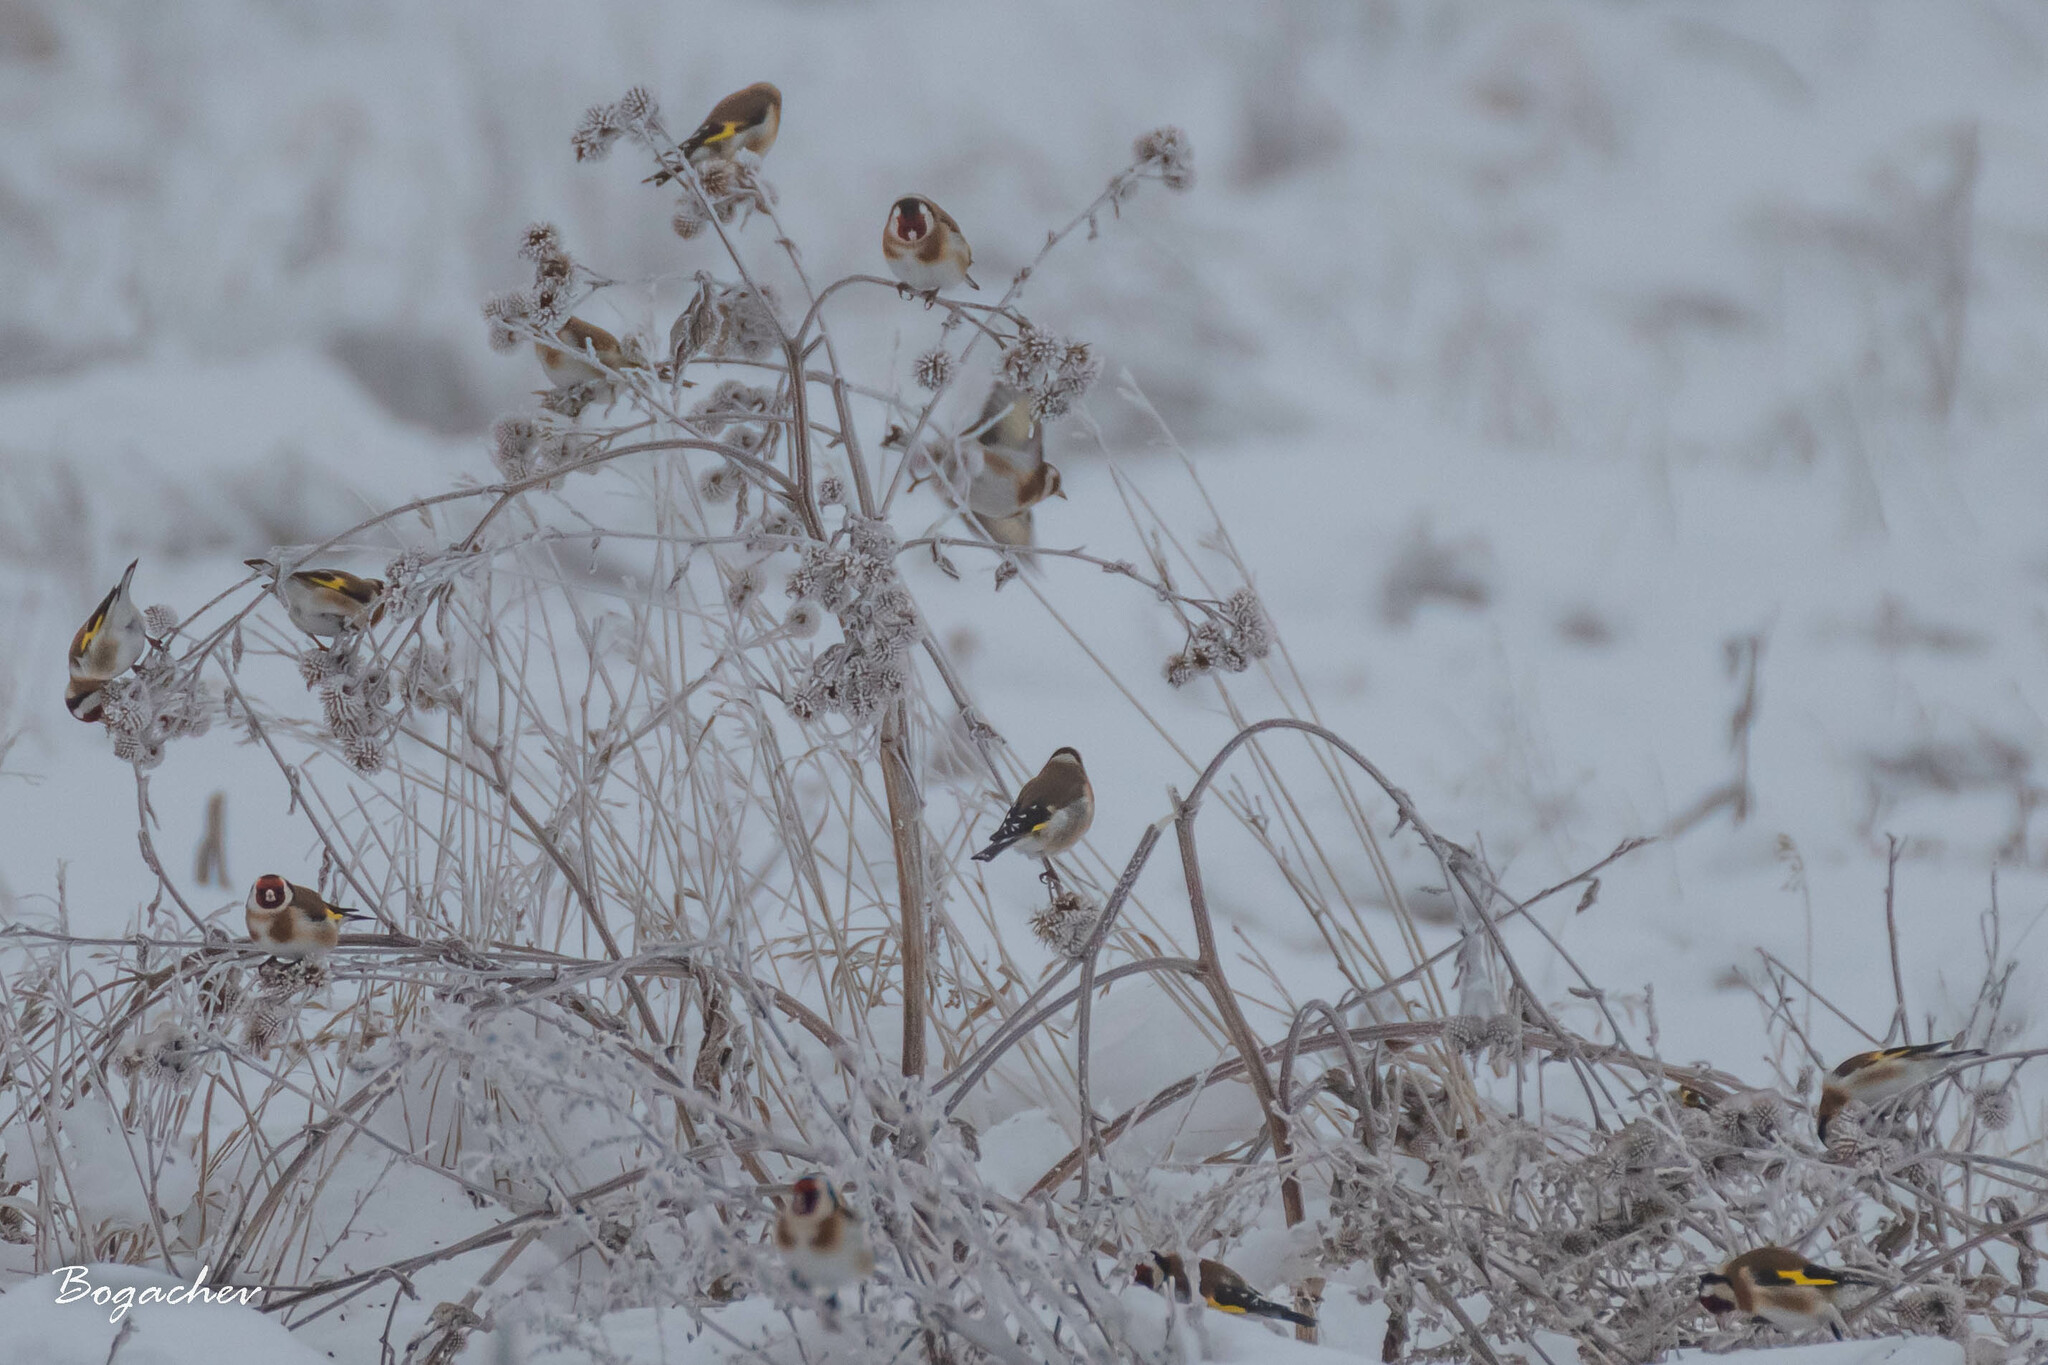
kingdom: Animalia
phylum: Chordata
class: Aves
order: Passeriformes
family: Fringillidae
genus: Carduelis
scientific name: Carduelis carduelis
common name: European goldfinch
